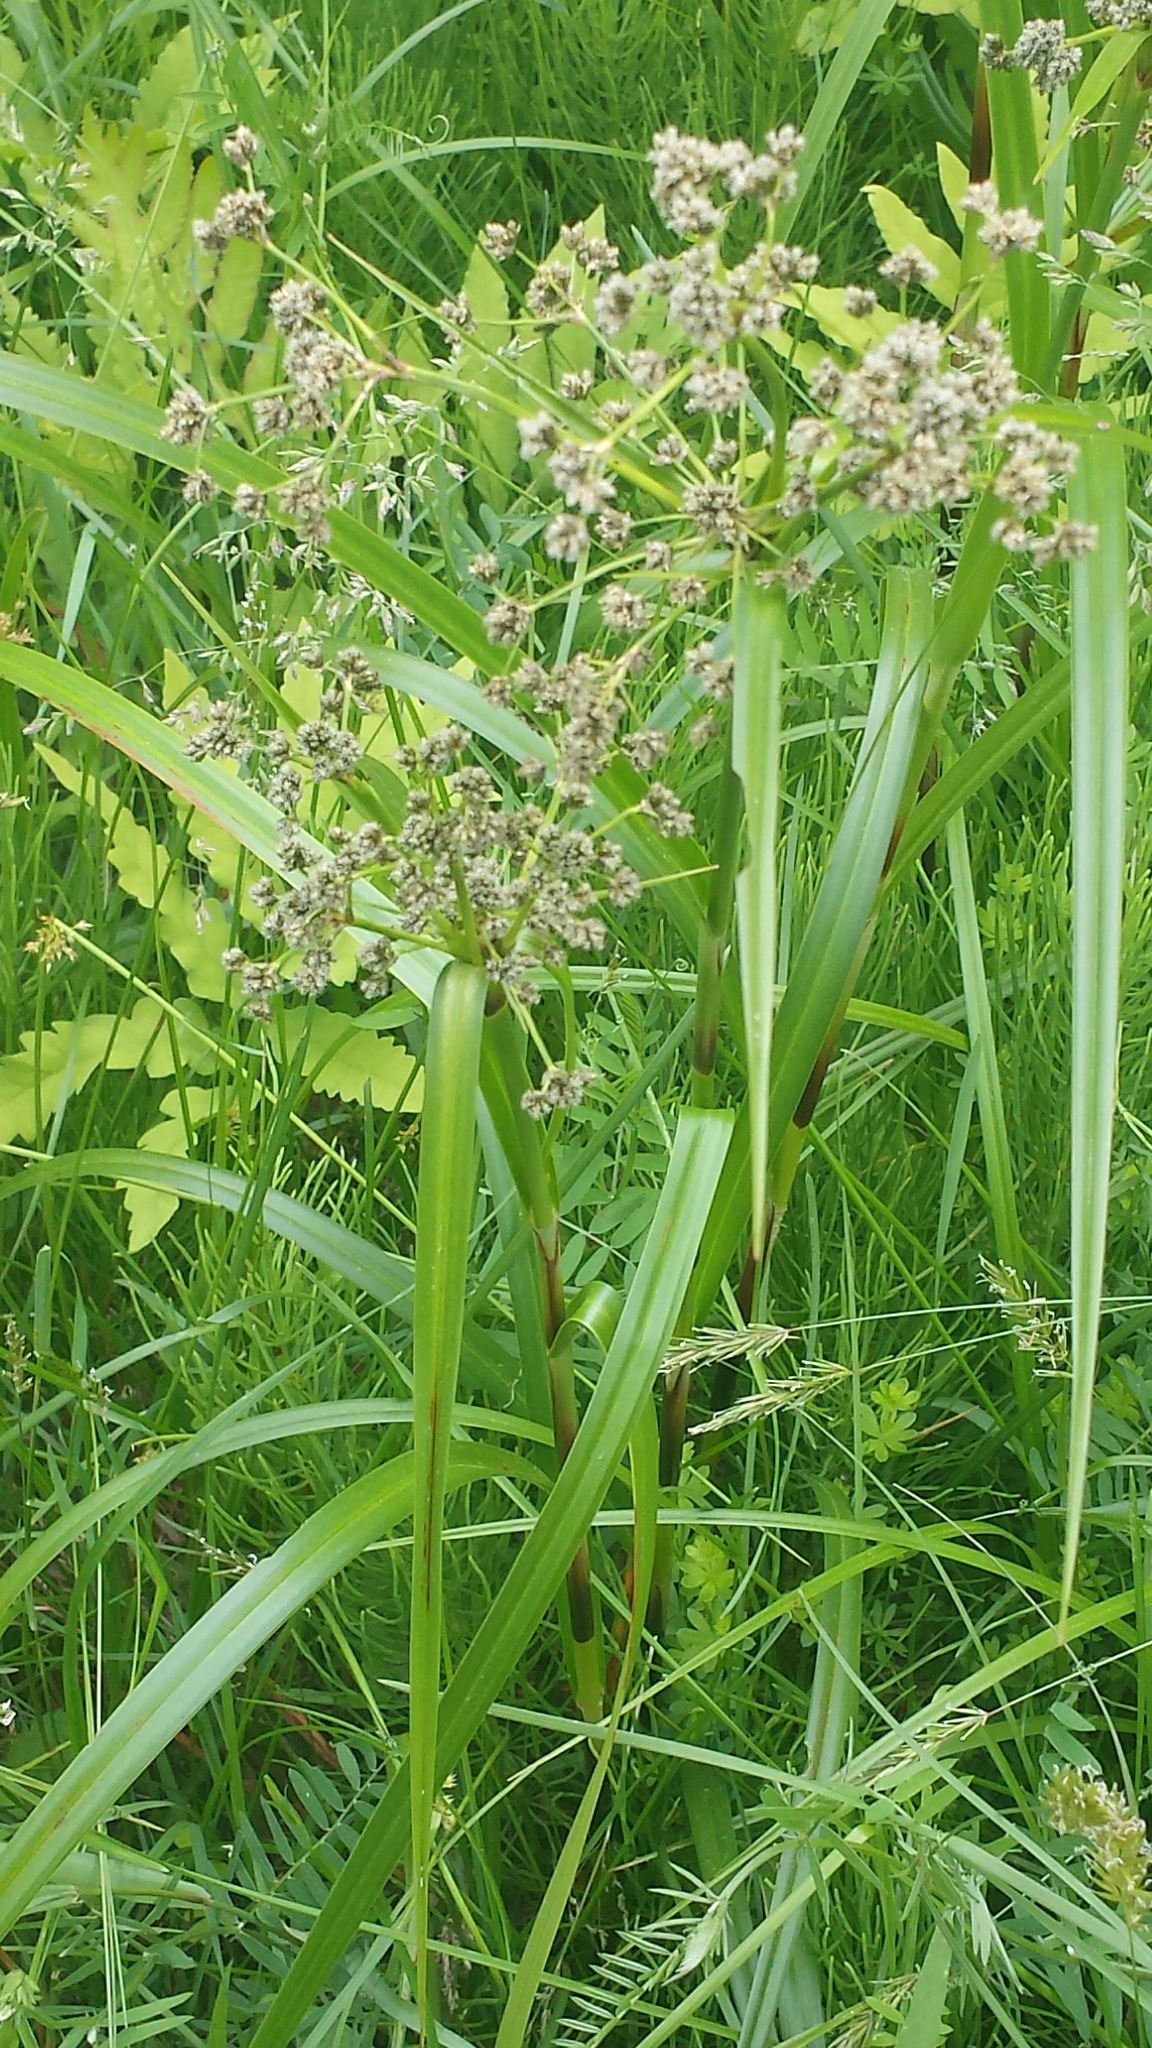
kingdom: Plantae
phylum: Tracheophyta
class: Liliopsida
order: Poales
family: Cyperaceae
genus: Scirpus
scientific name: Scirpus microcarpus
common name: Panicled bulrush
